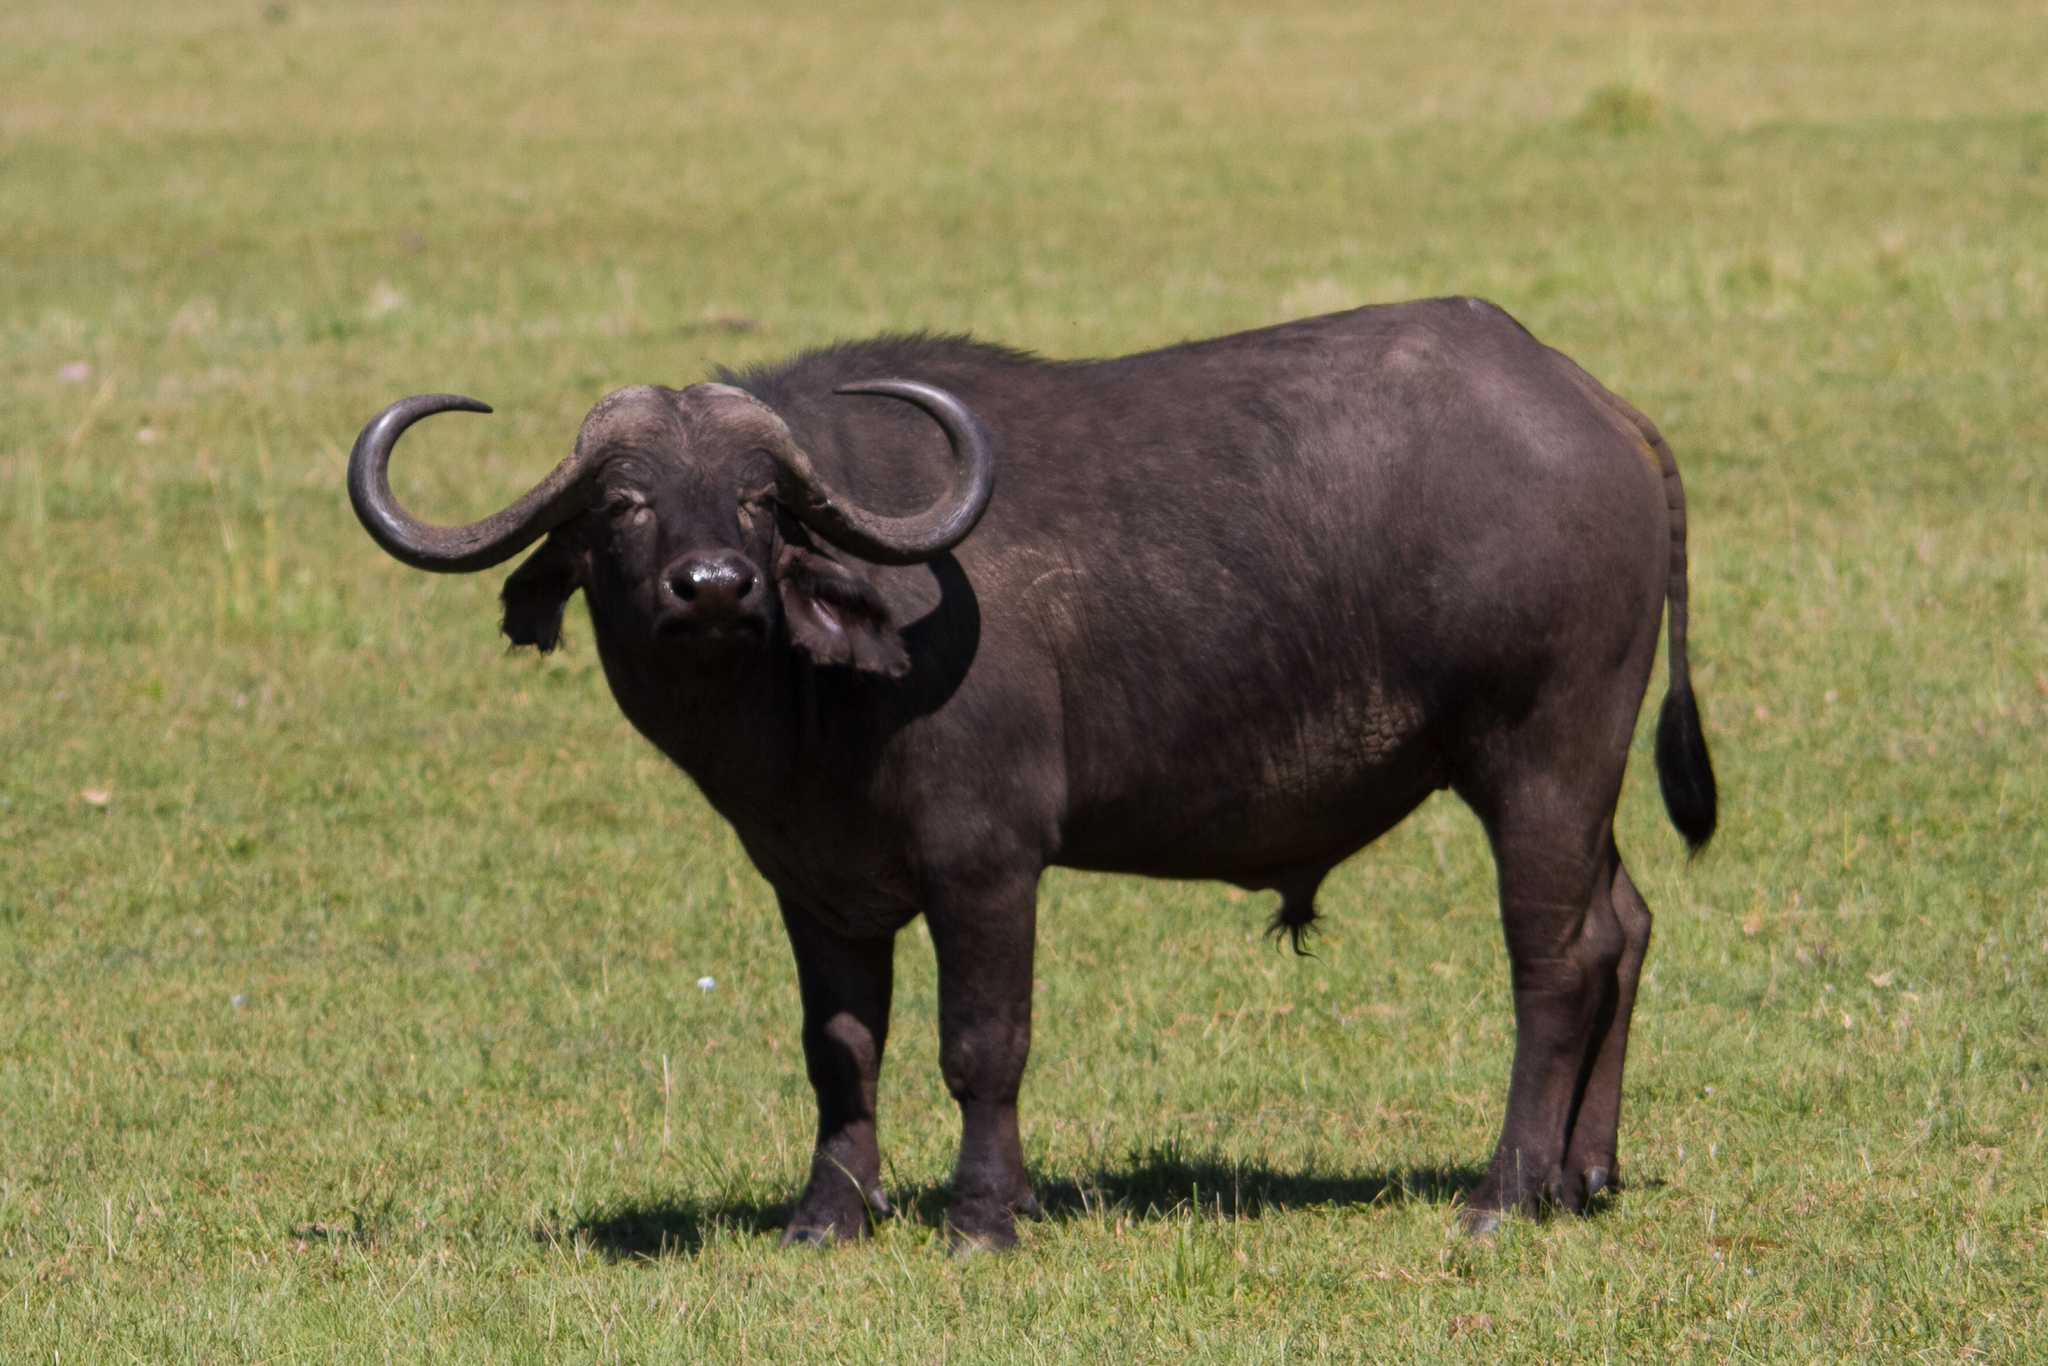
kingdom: Animalia
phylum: Chordata
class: Mammalia
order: Artiodactyla
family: Bovidae
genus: Syncerus
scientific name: Syncerus caffer
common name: African buffalo
